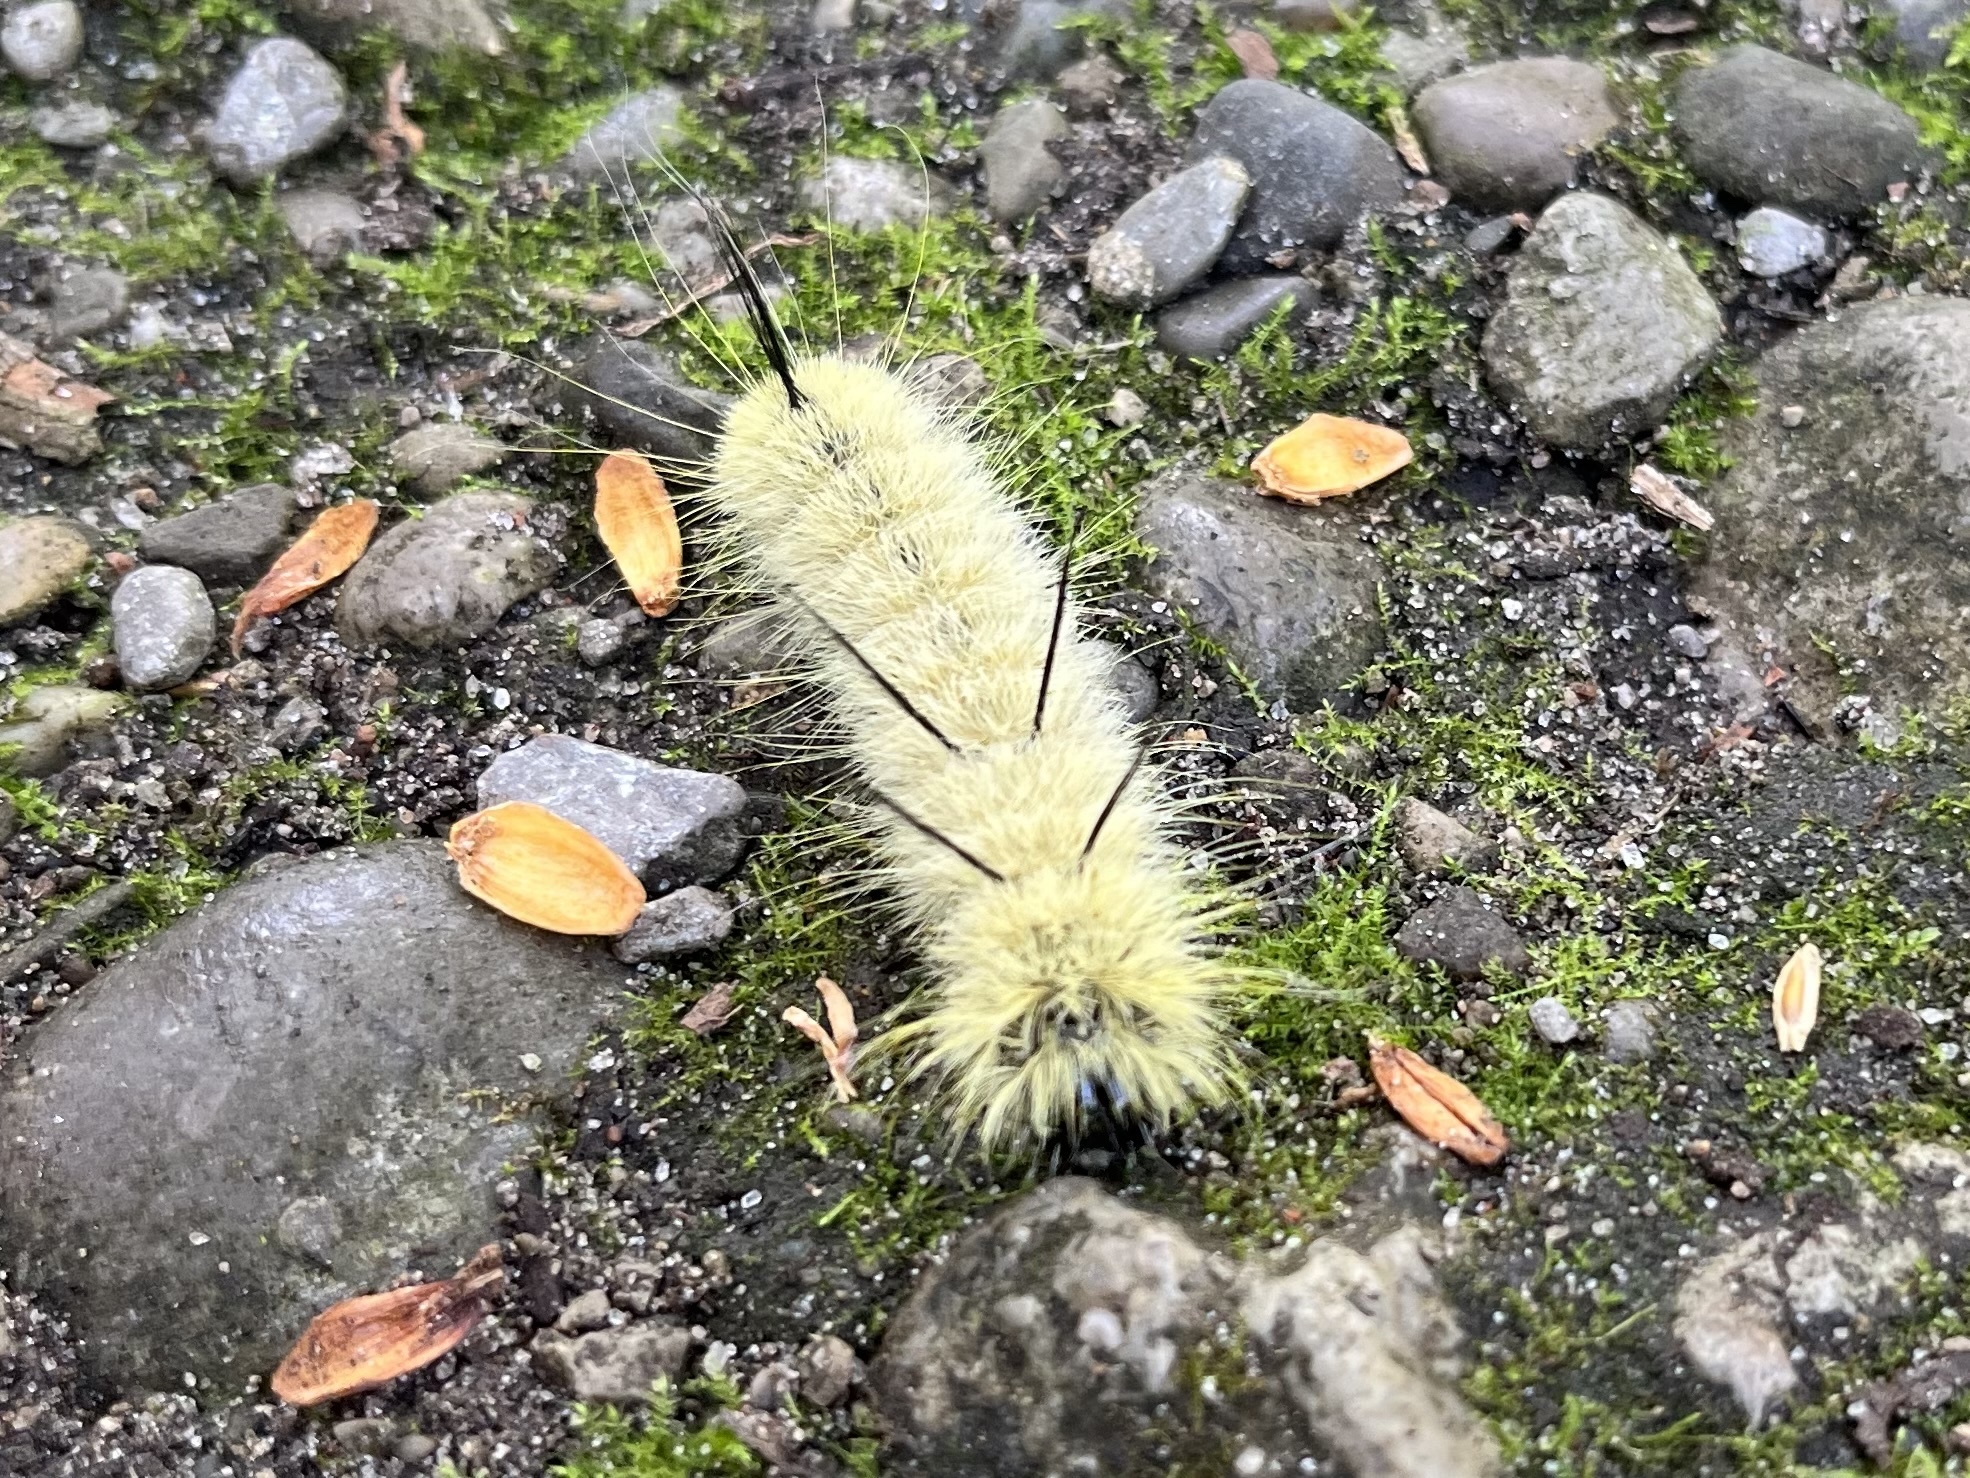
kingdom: Animalia
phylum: Arthropoda
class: Insecta
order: Lepidoptera
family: Noctuidae
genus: Acronicta
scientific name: Acronicta americana
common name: American dagger
